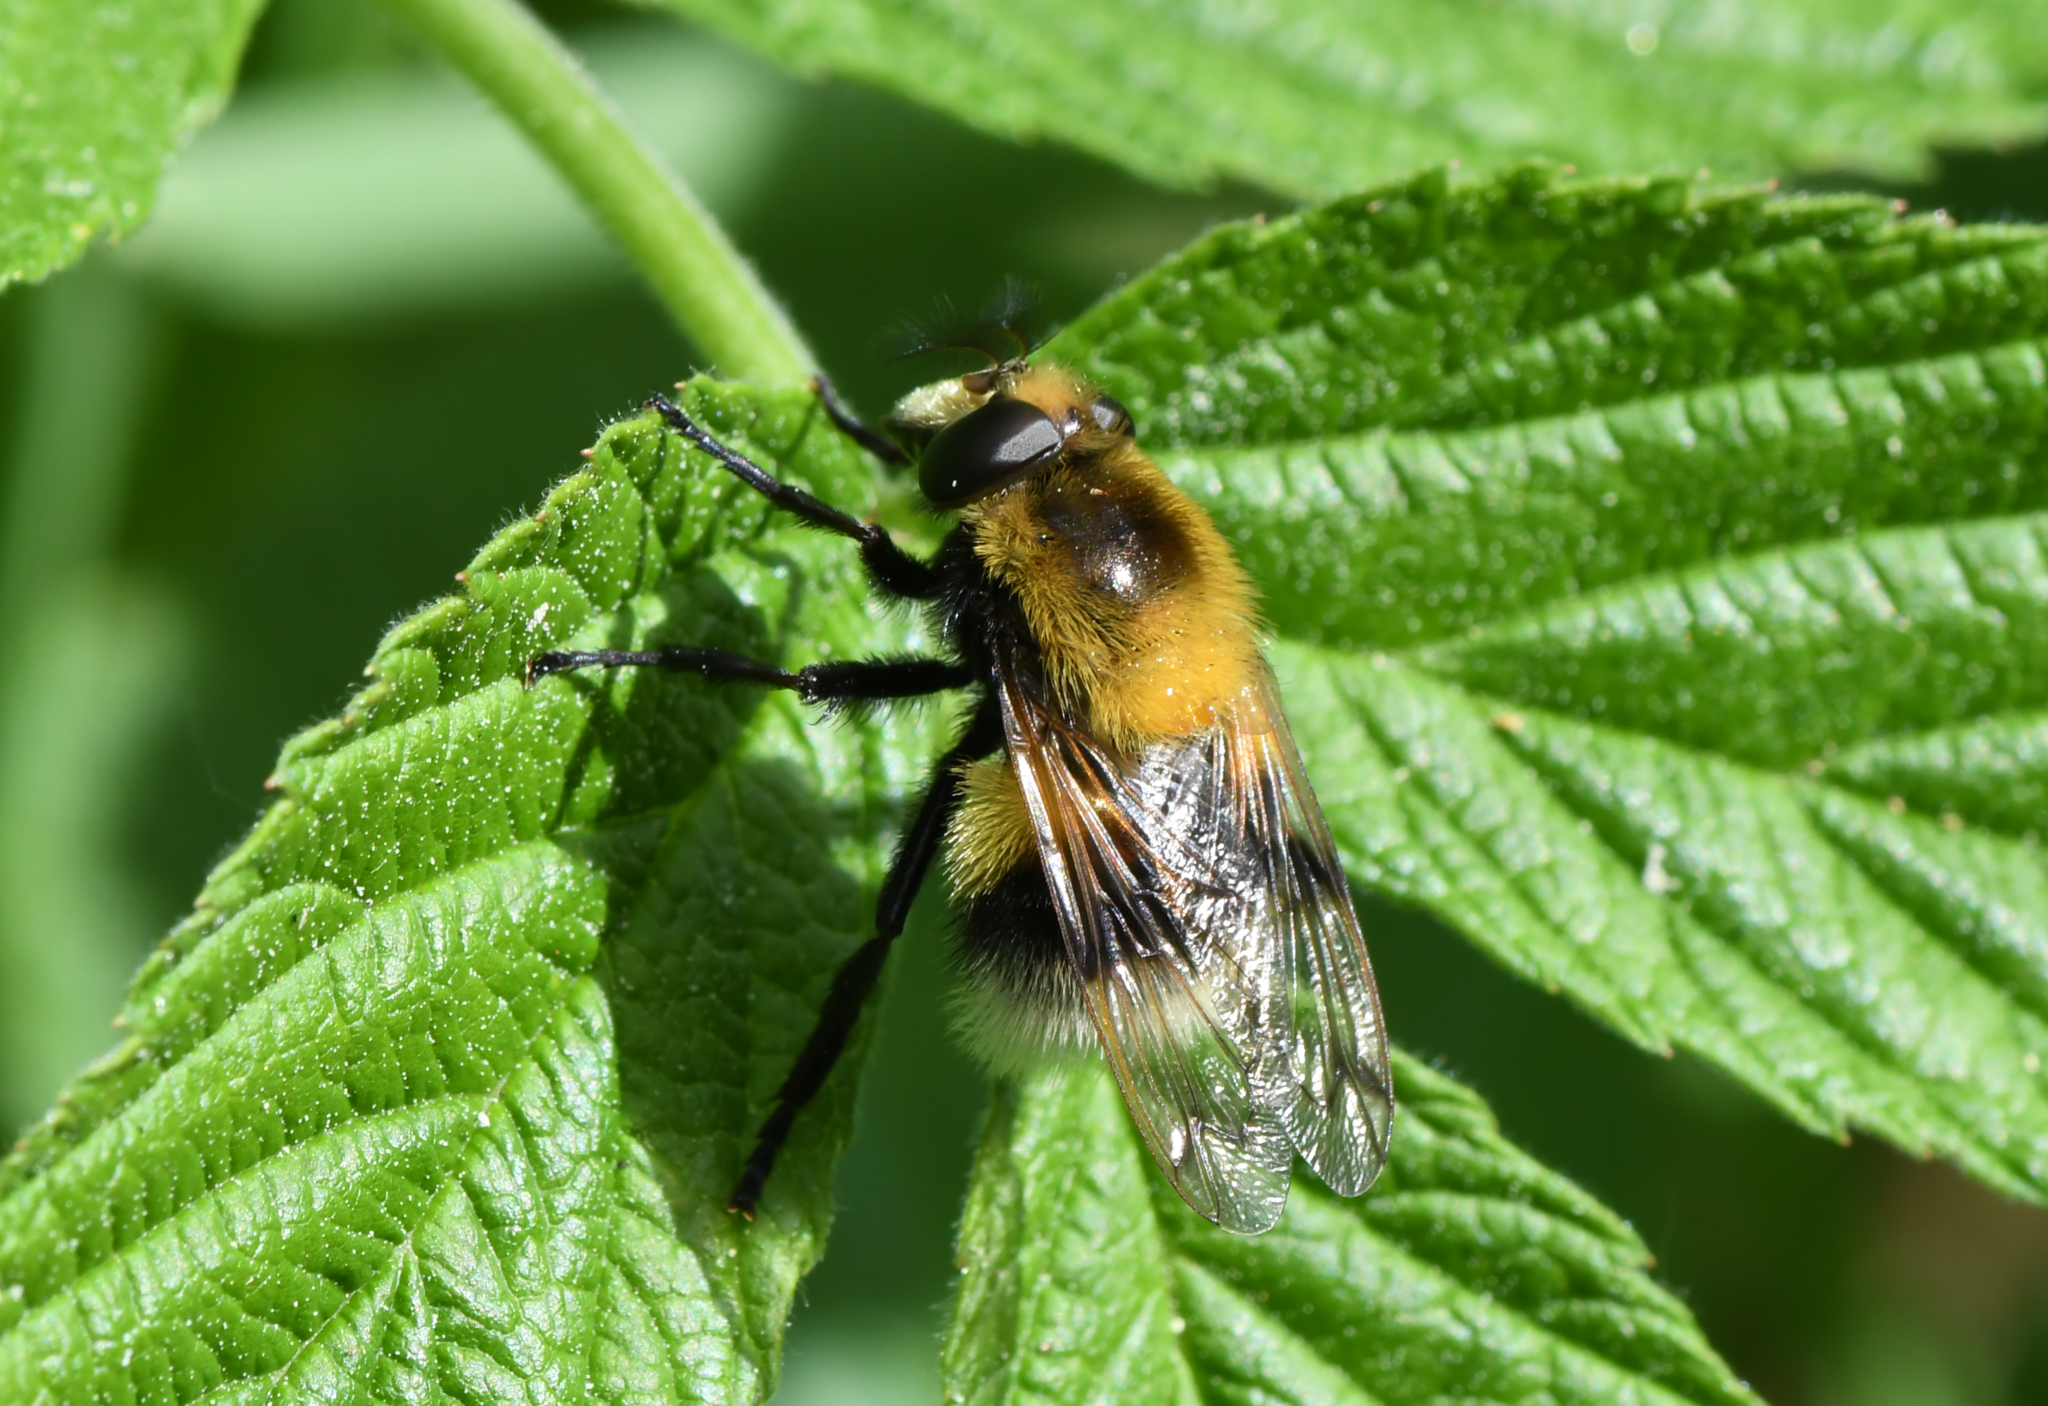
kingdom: Animalia
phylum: Arthropoda
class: Insecta
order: Diptera
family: Syrphidae
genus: Volucella
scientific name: Volucella bombylans
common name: Bumble bee hover fly
